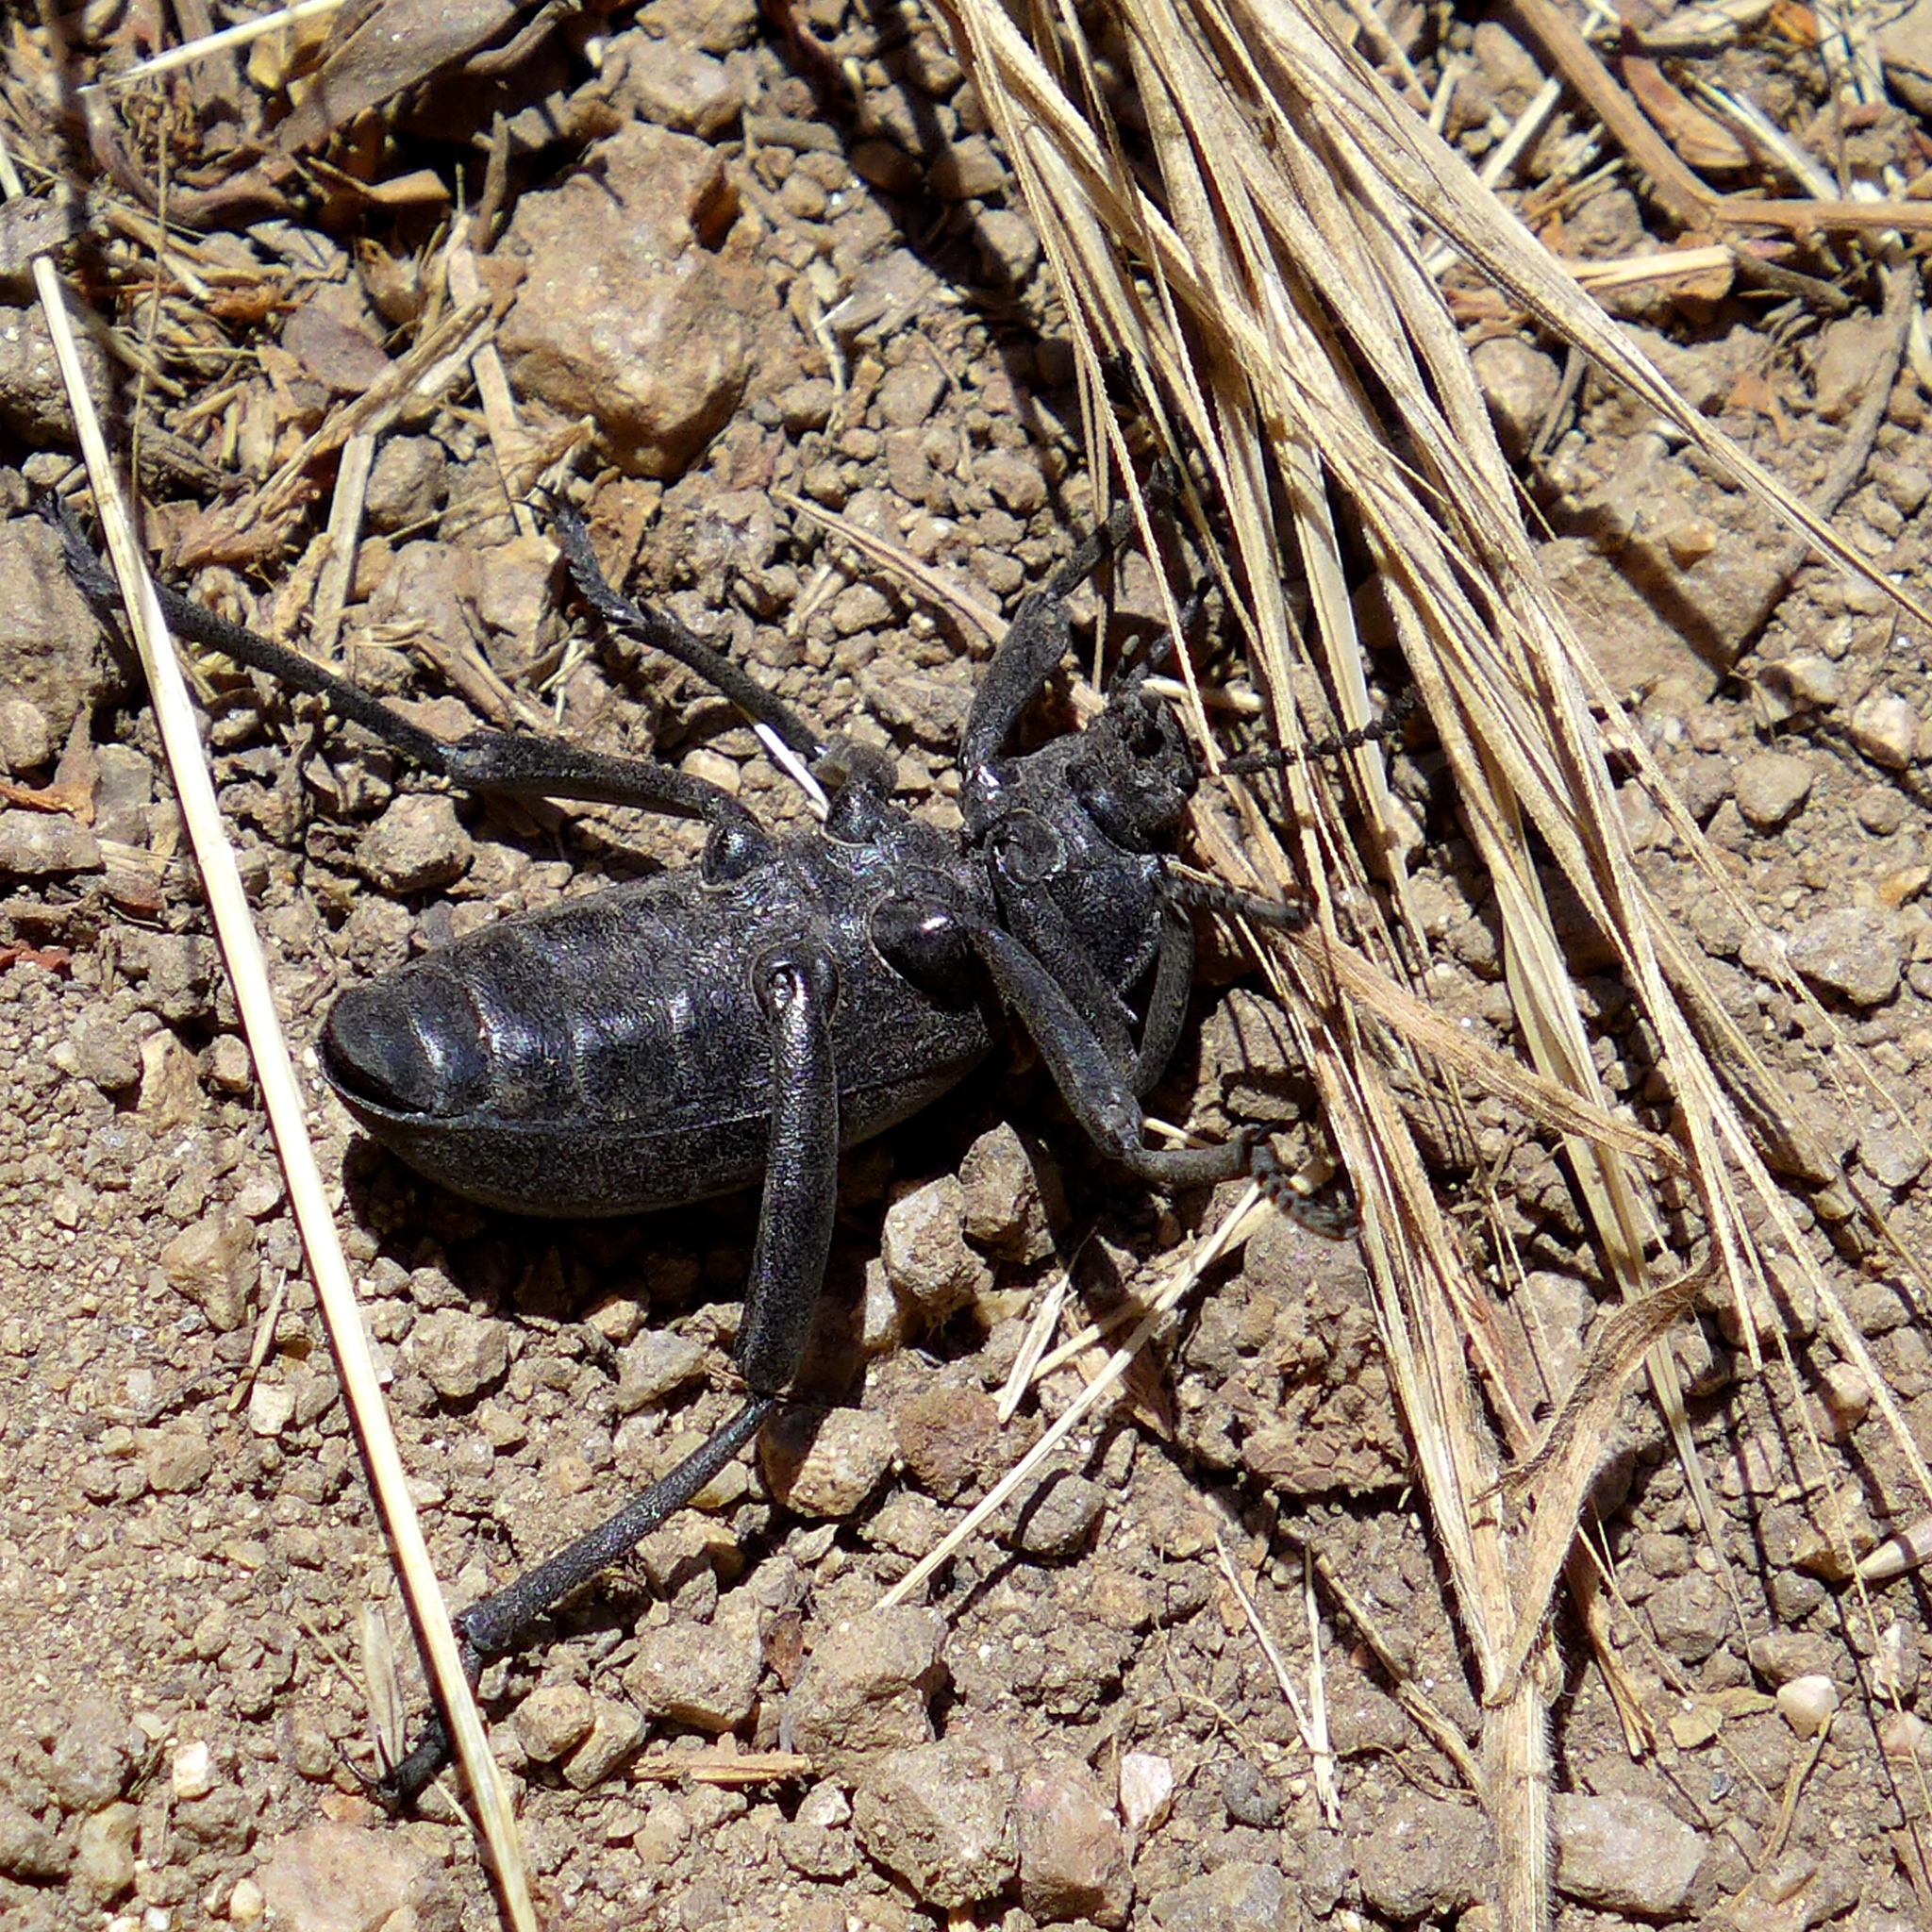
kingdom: Animalia
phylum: Arthropoda
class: Insecta
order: Coleoptera
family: Tenebrionidae
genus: Eleodes
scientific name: Eleodes grandicollis
